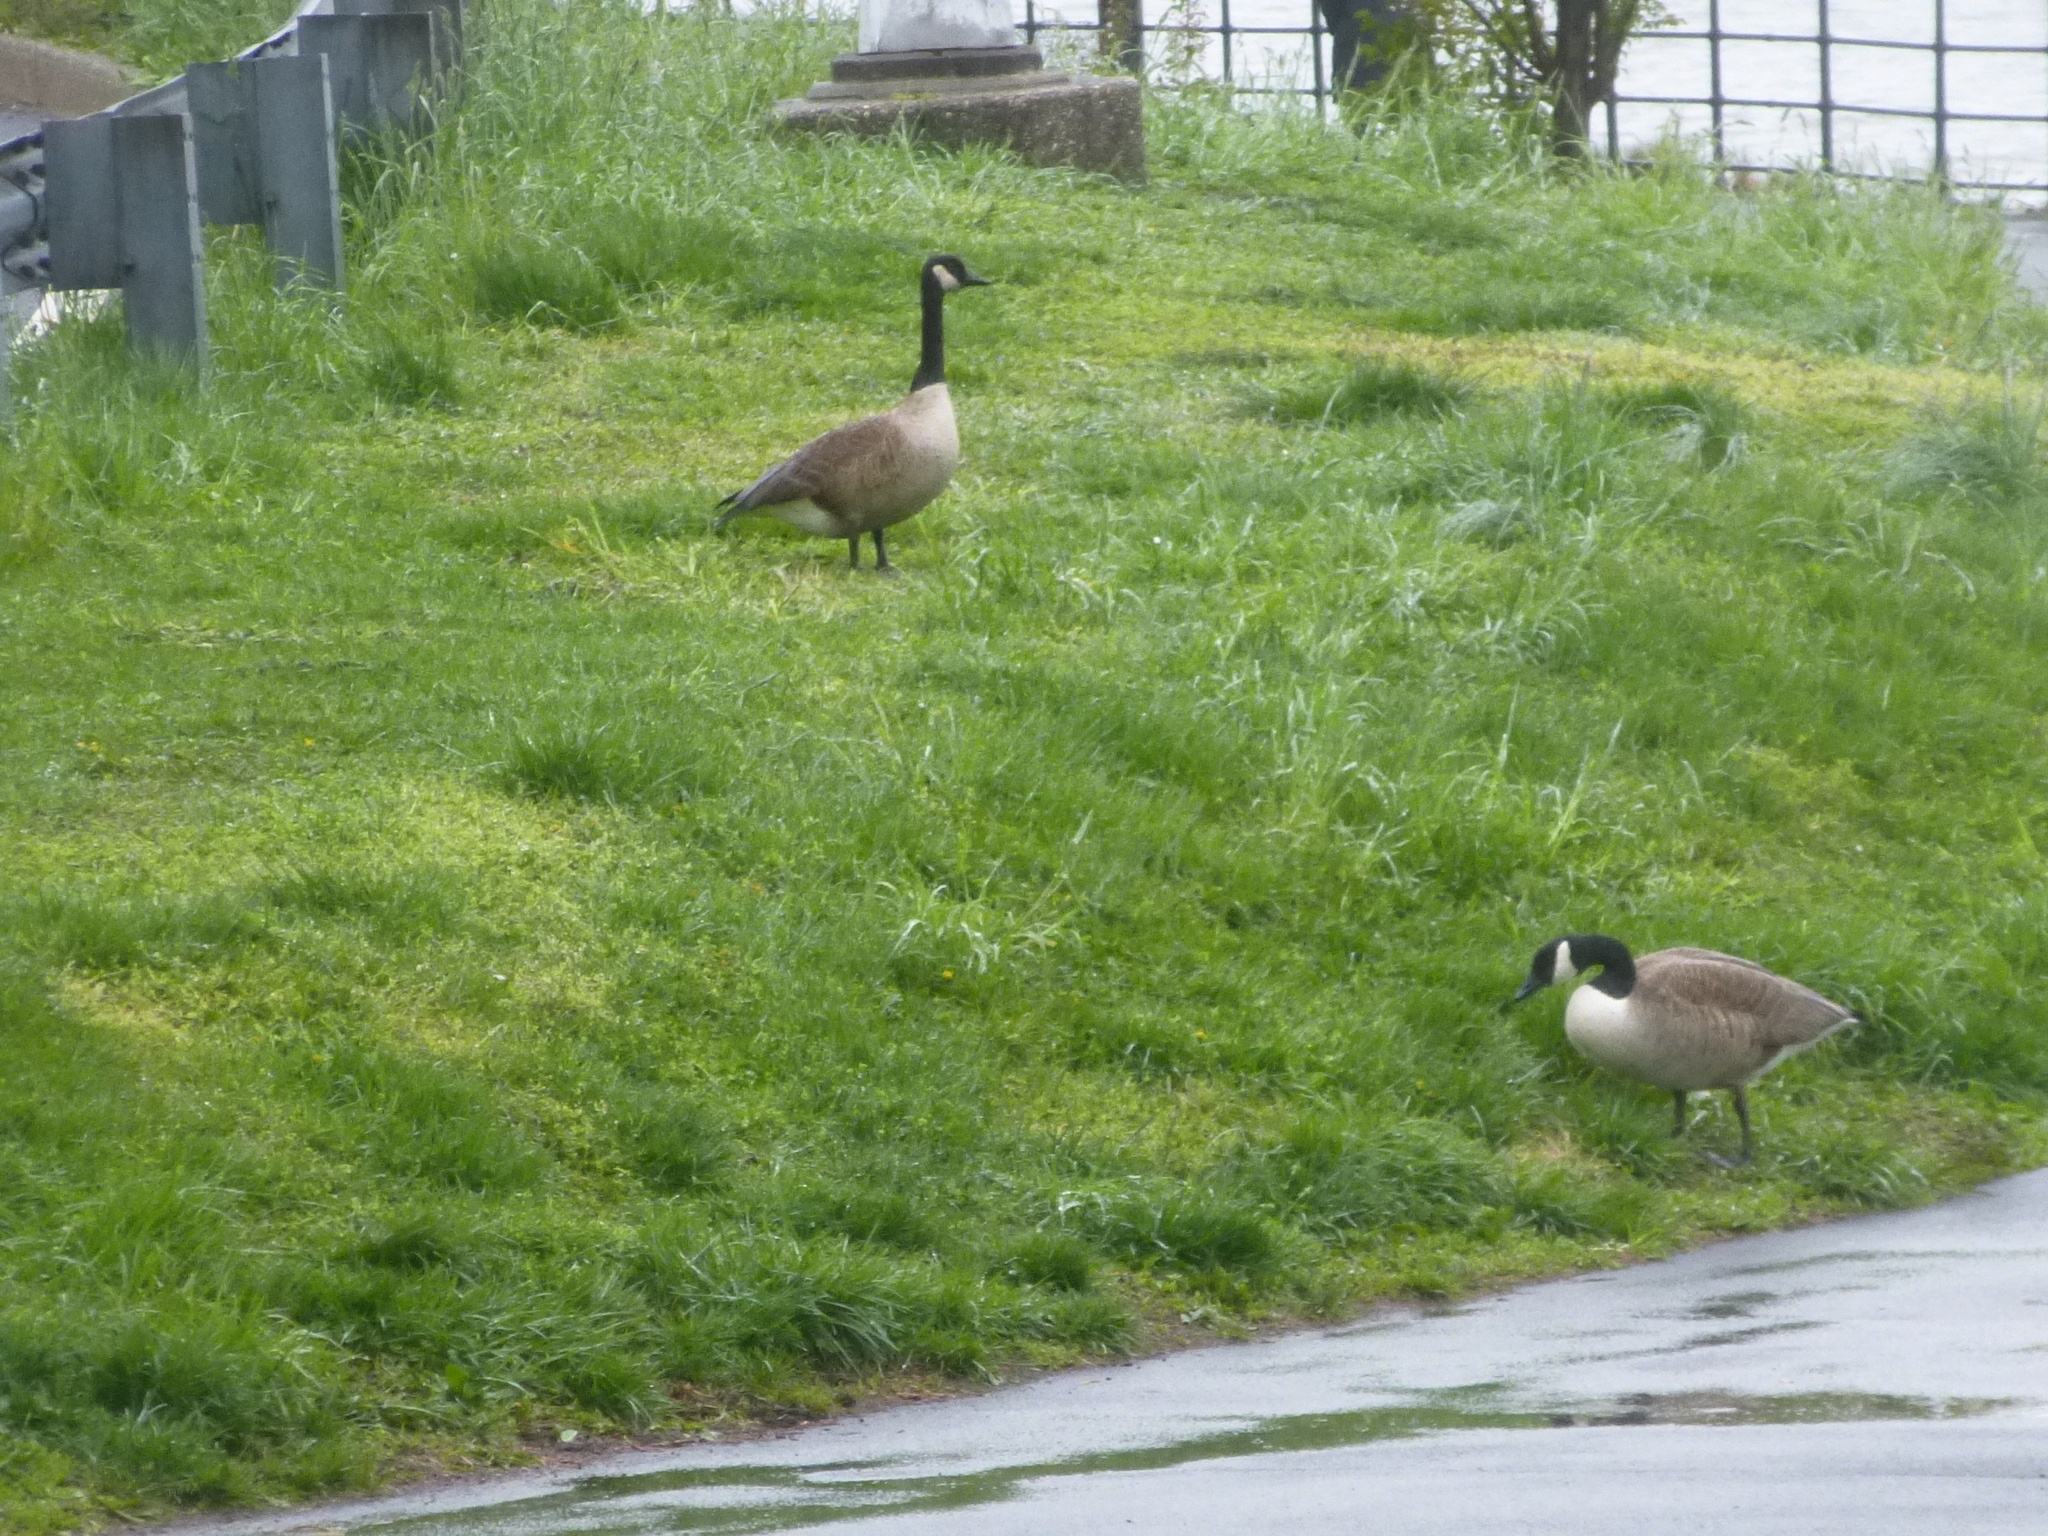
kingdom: Animalia
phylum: Chordata
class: Aves
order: Anseriformes
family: Anatidae
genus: Branta
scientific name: Branta canadensis
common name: Canada goose
